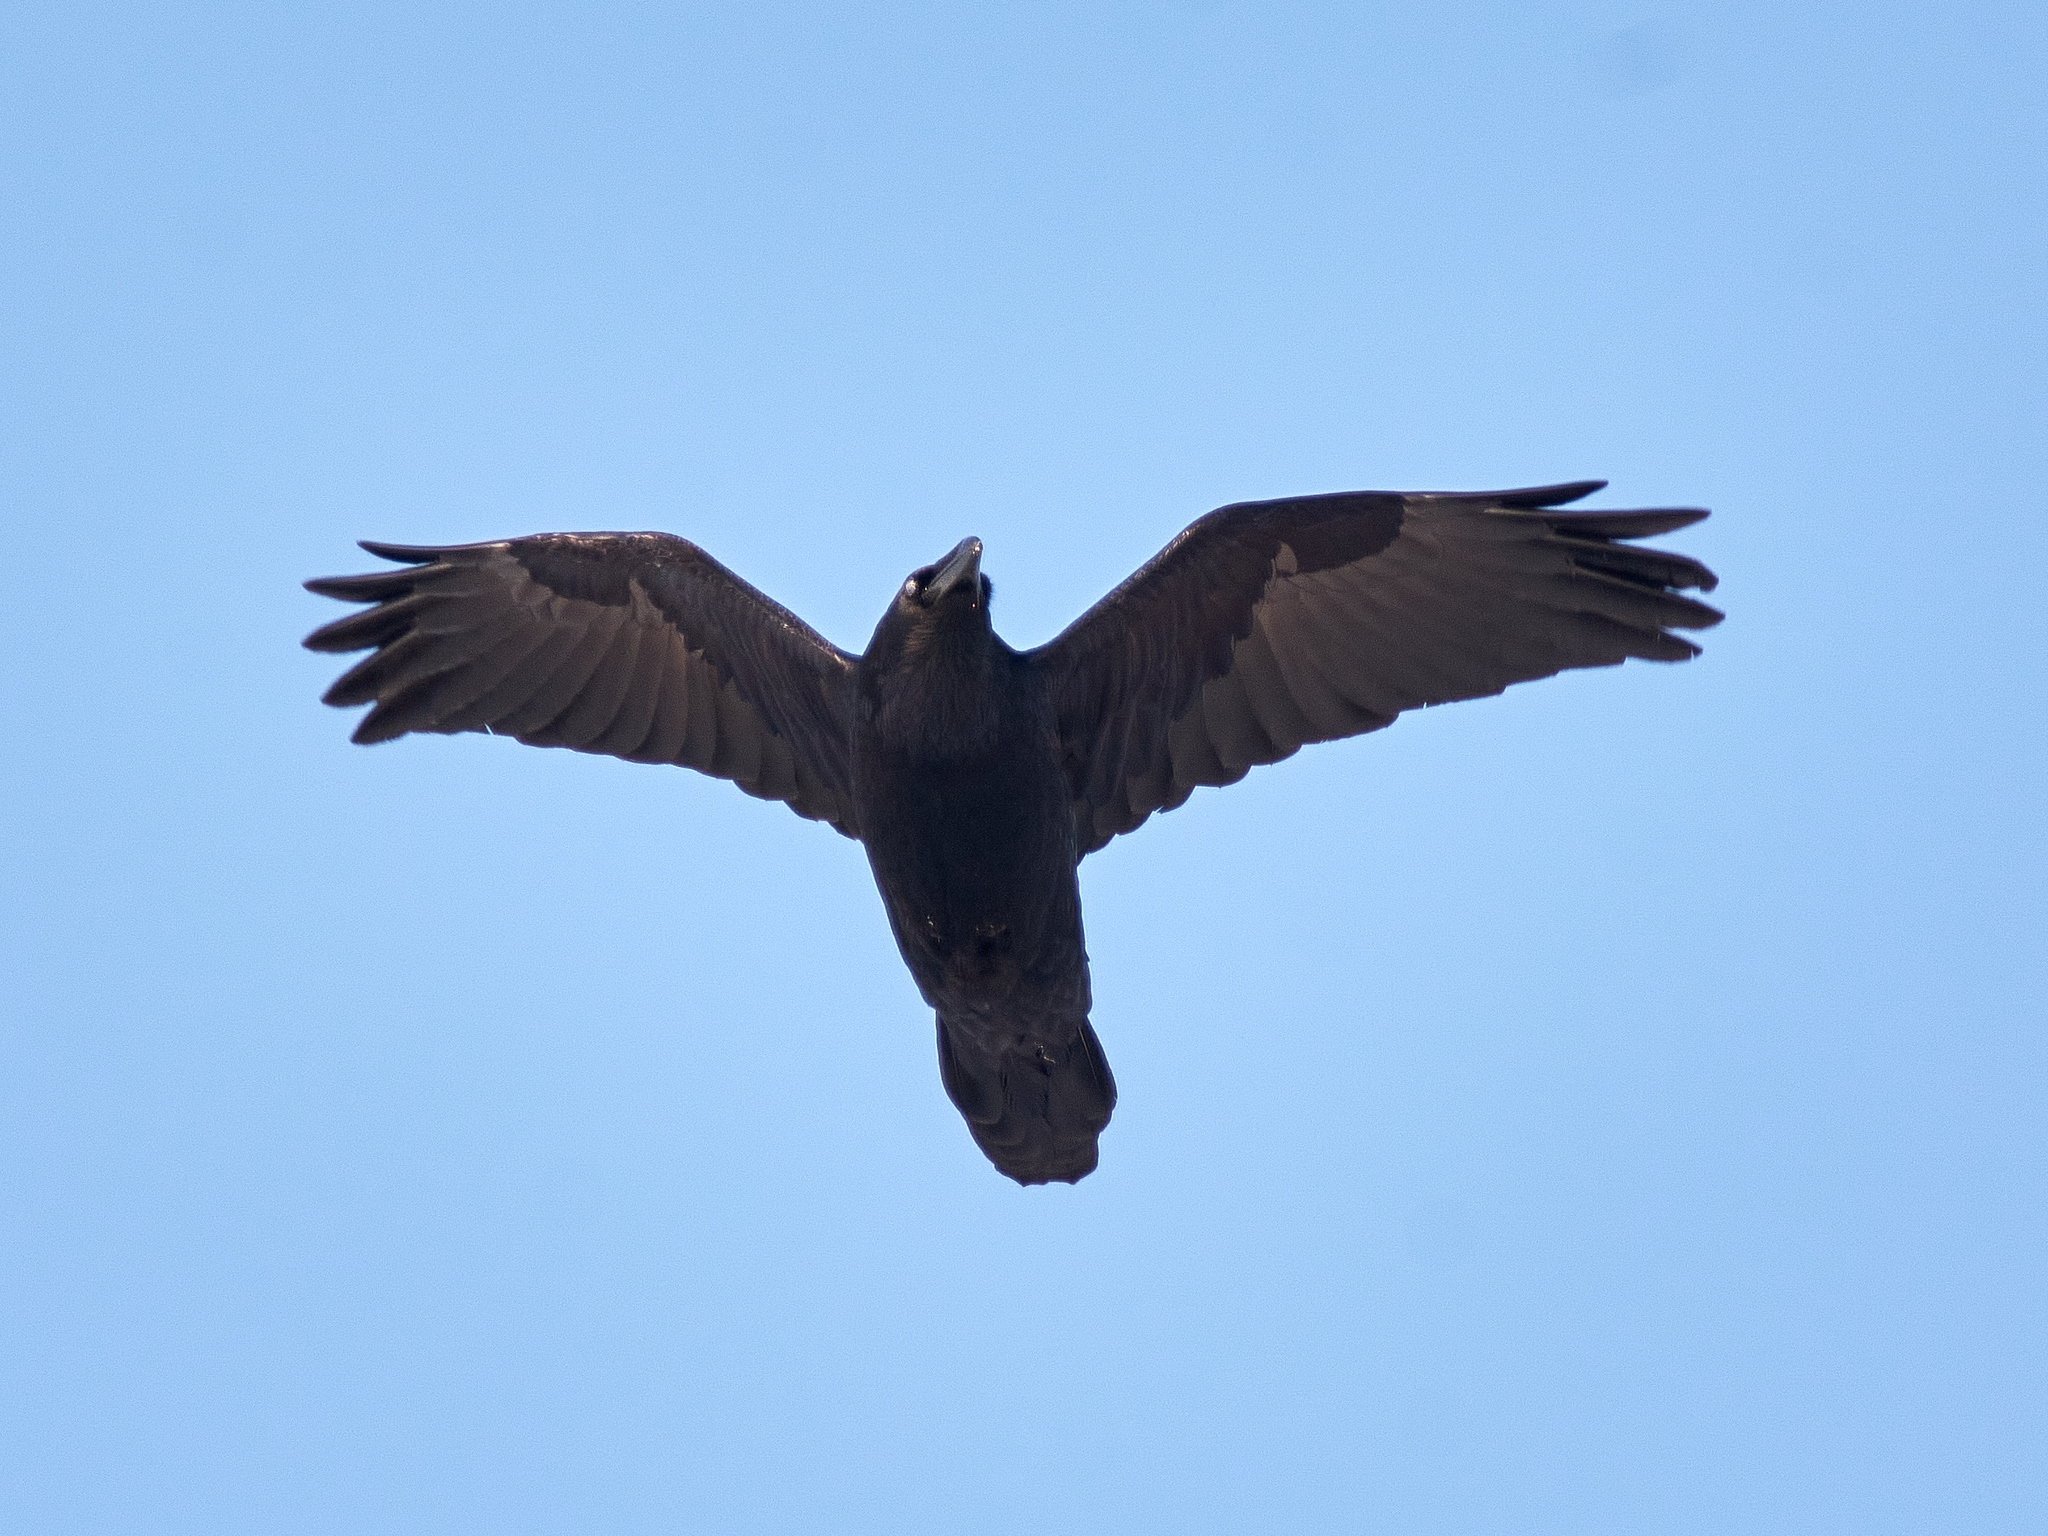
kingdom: Animalia
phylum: Chordata
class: Aves
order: Passeriformes
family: Corvidae
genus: Corvus
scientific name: Corvus corax
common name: Common raven
